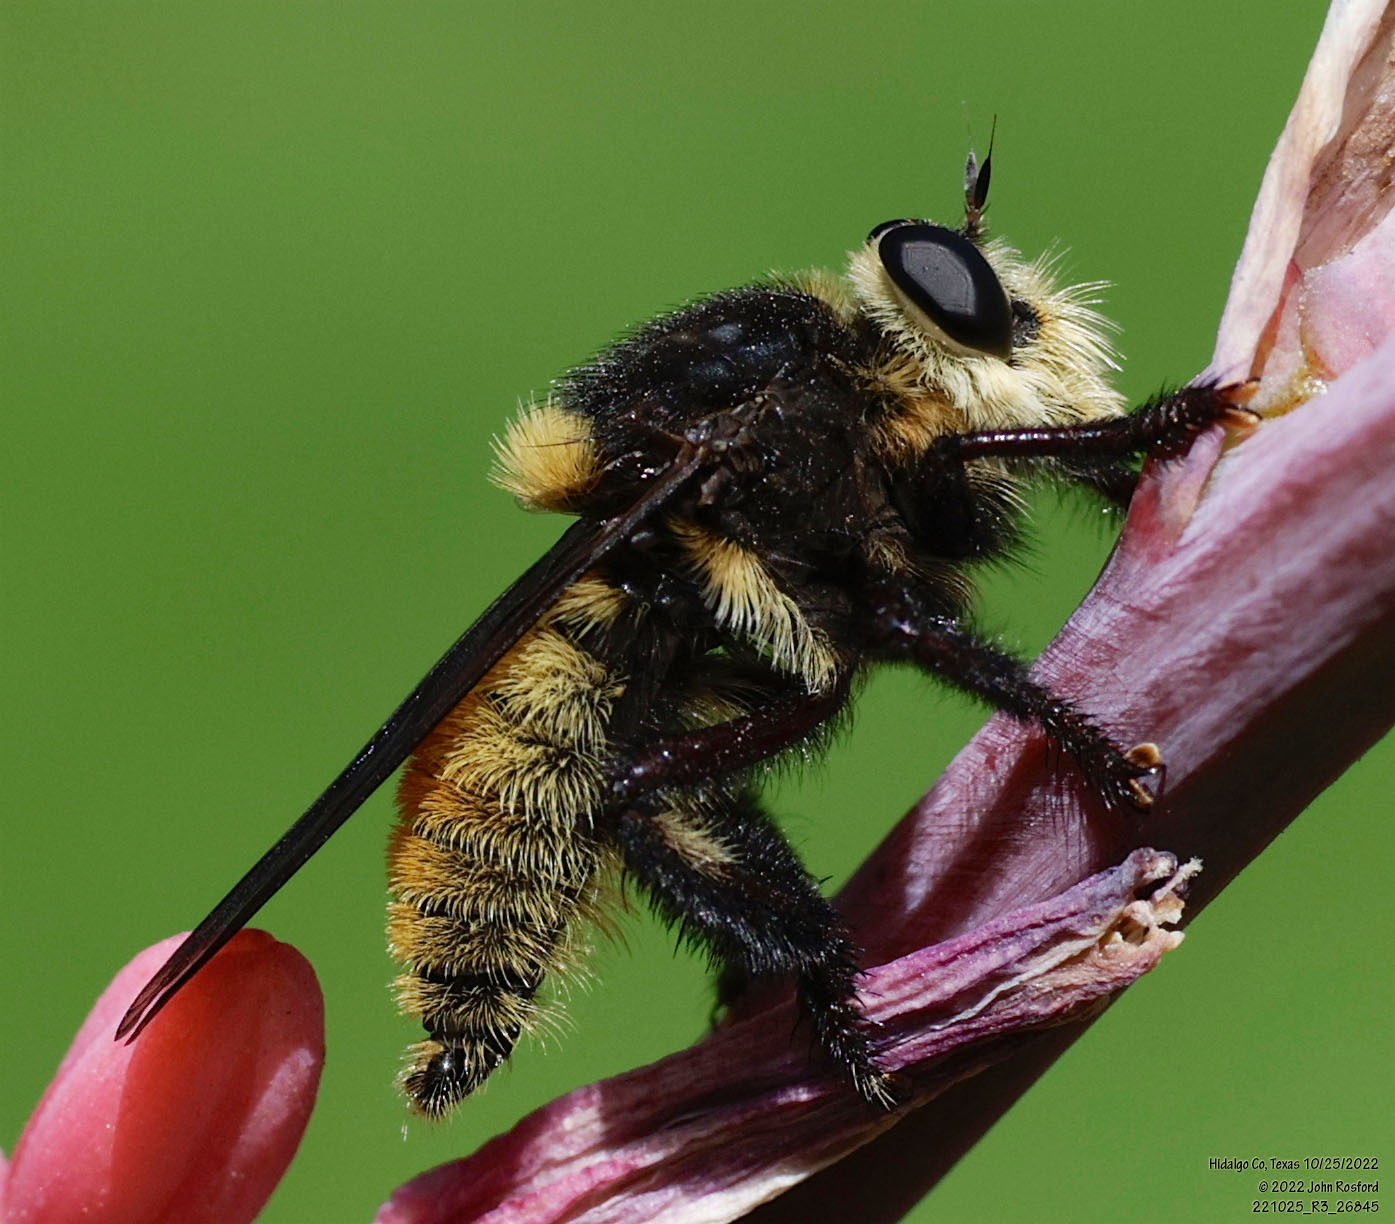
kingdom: Animalia
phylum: Arthropoda
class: Insecta
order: Diptera
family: Asilidae
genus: Mallophora
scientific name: Mallophora fautrix
